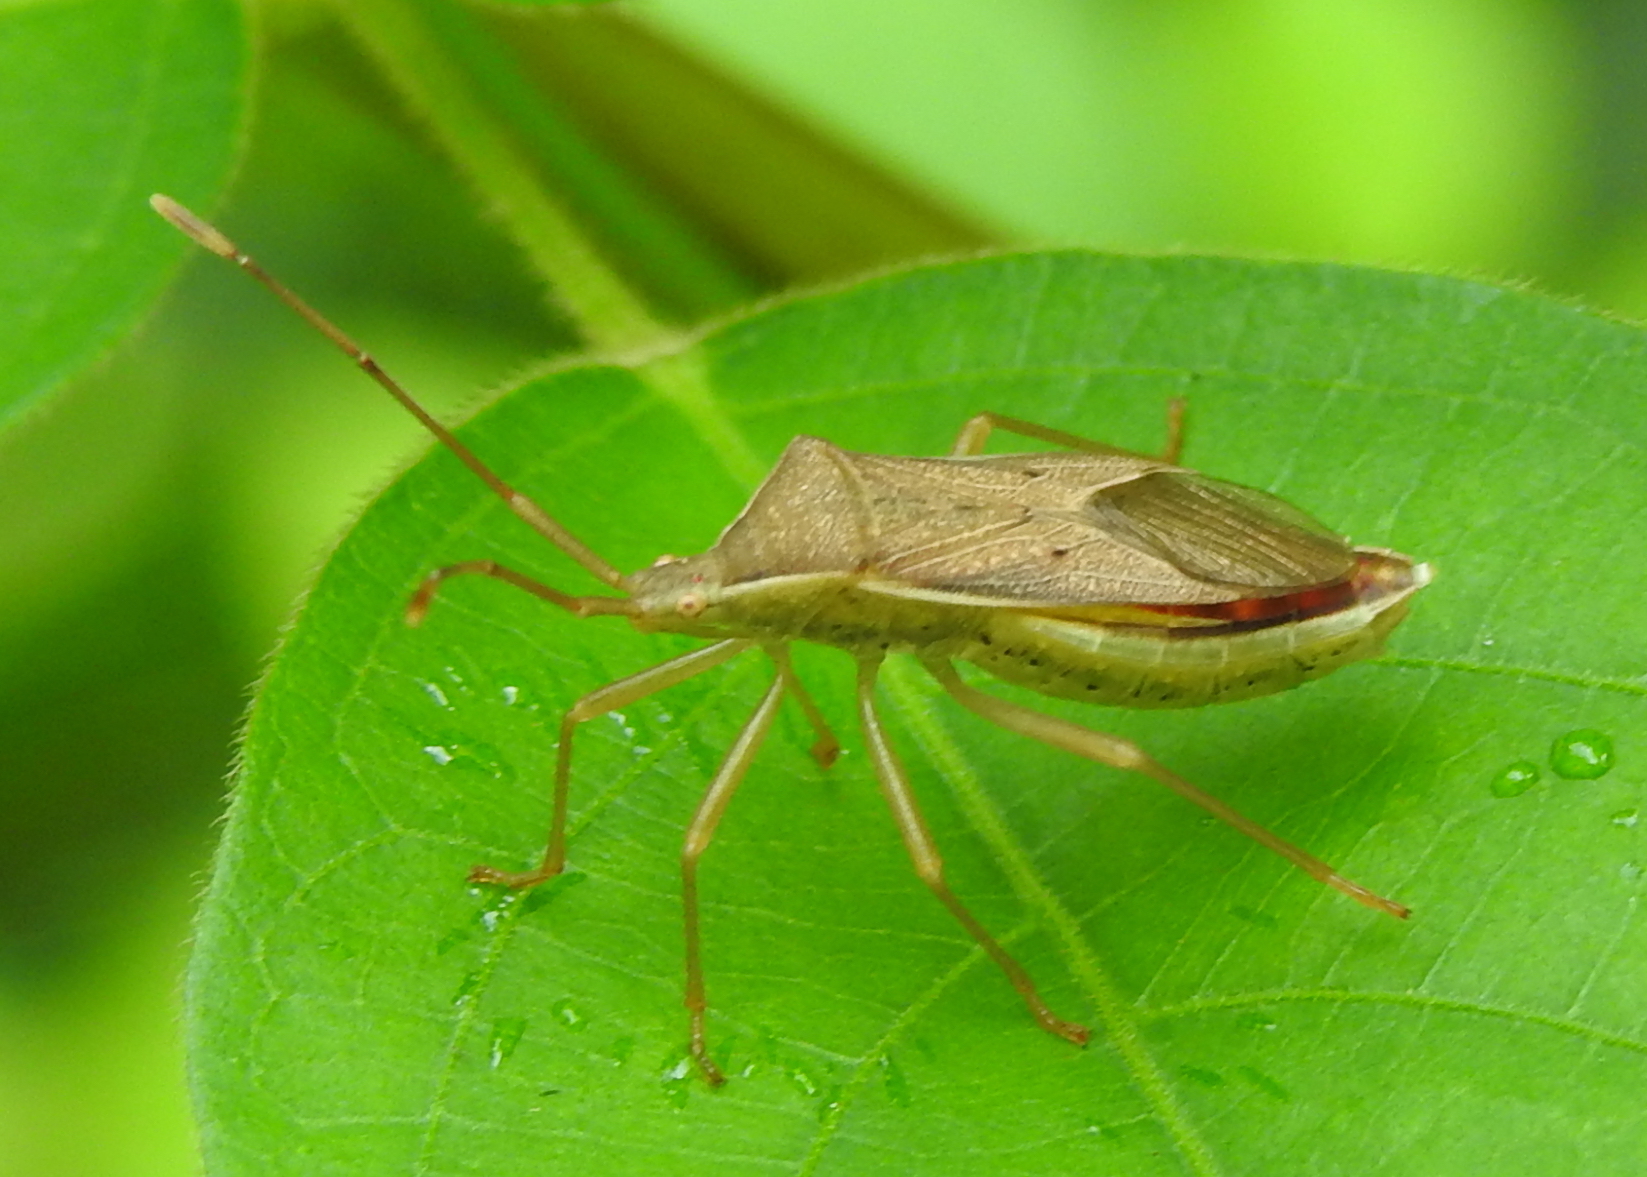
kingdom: Animalia
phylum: Arthropoda
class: Insecta
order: Hemiptera
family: Coreidae
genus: Homoeocerus
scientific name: Homoeocerus marginellus
